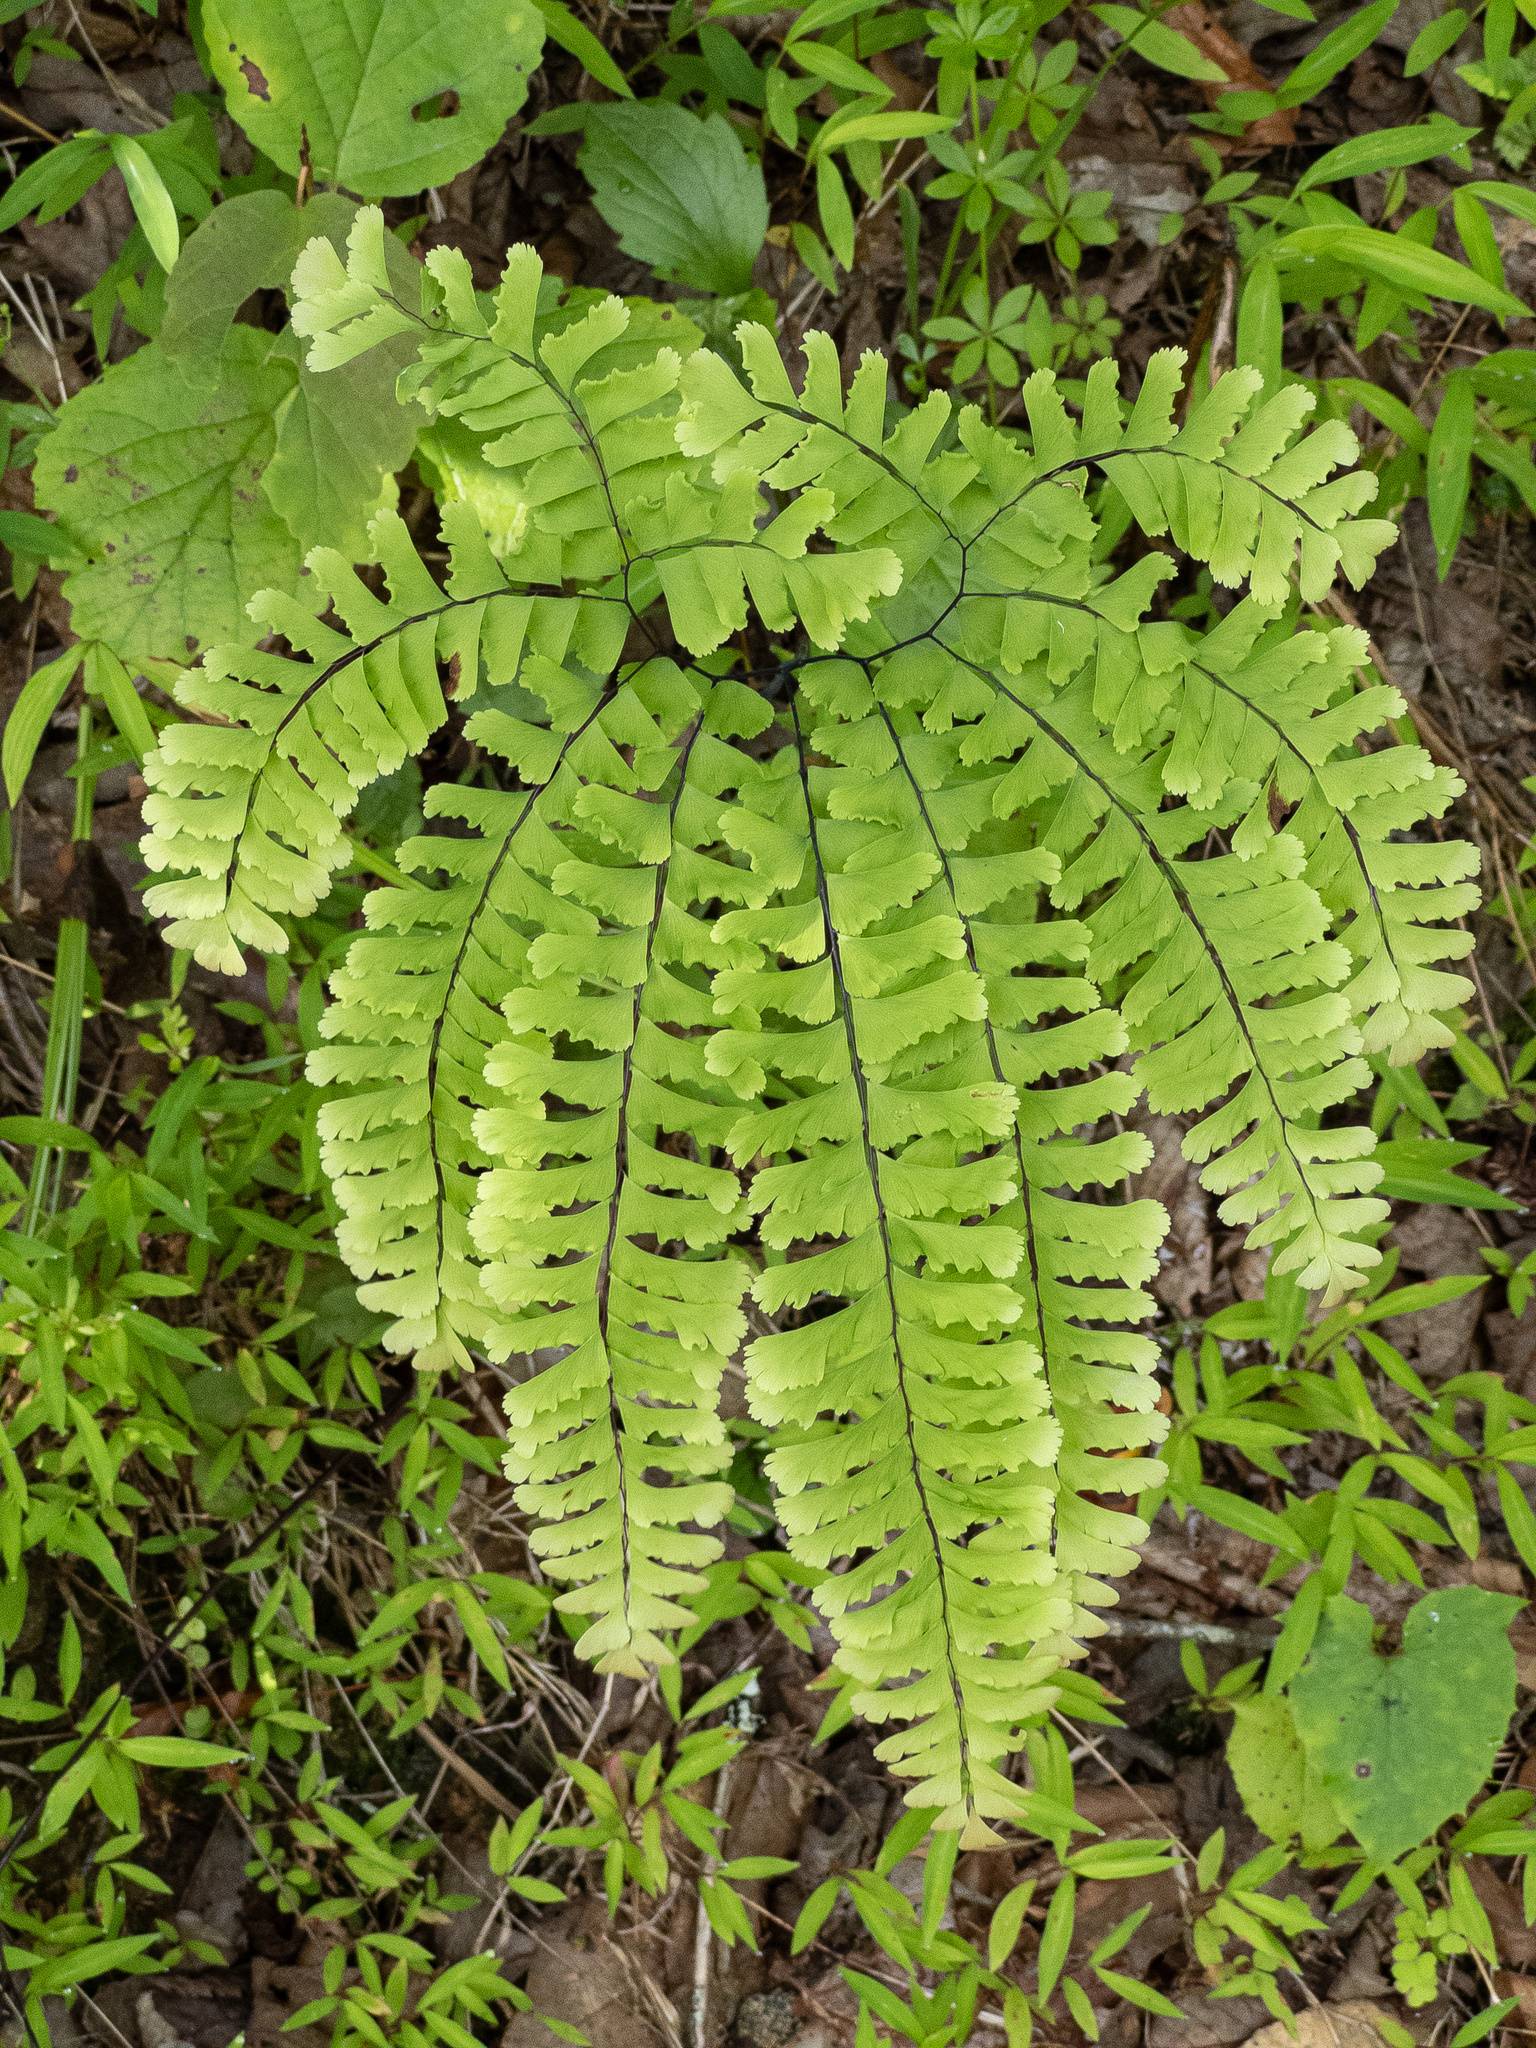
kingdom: Plantae
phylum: Tracheophyta
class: Polypodiopsida
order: Polypodiales
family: Pteridaceae
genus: Adiantum
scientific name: Adiantum pedatum
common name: Five-finger fern
